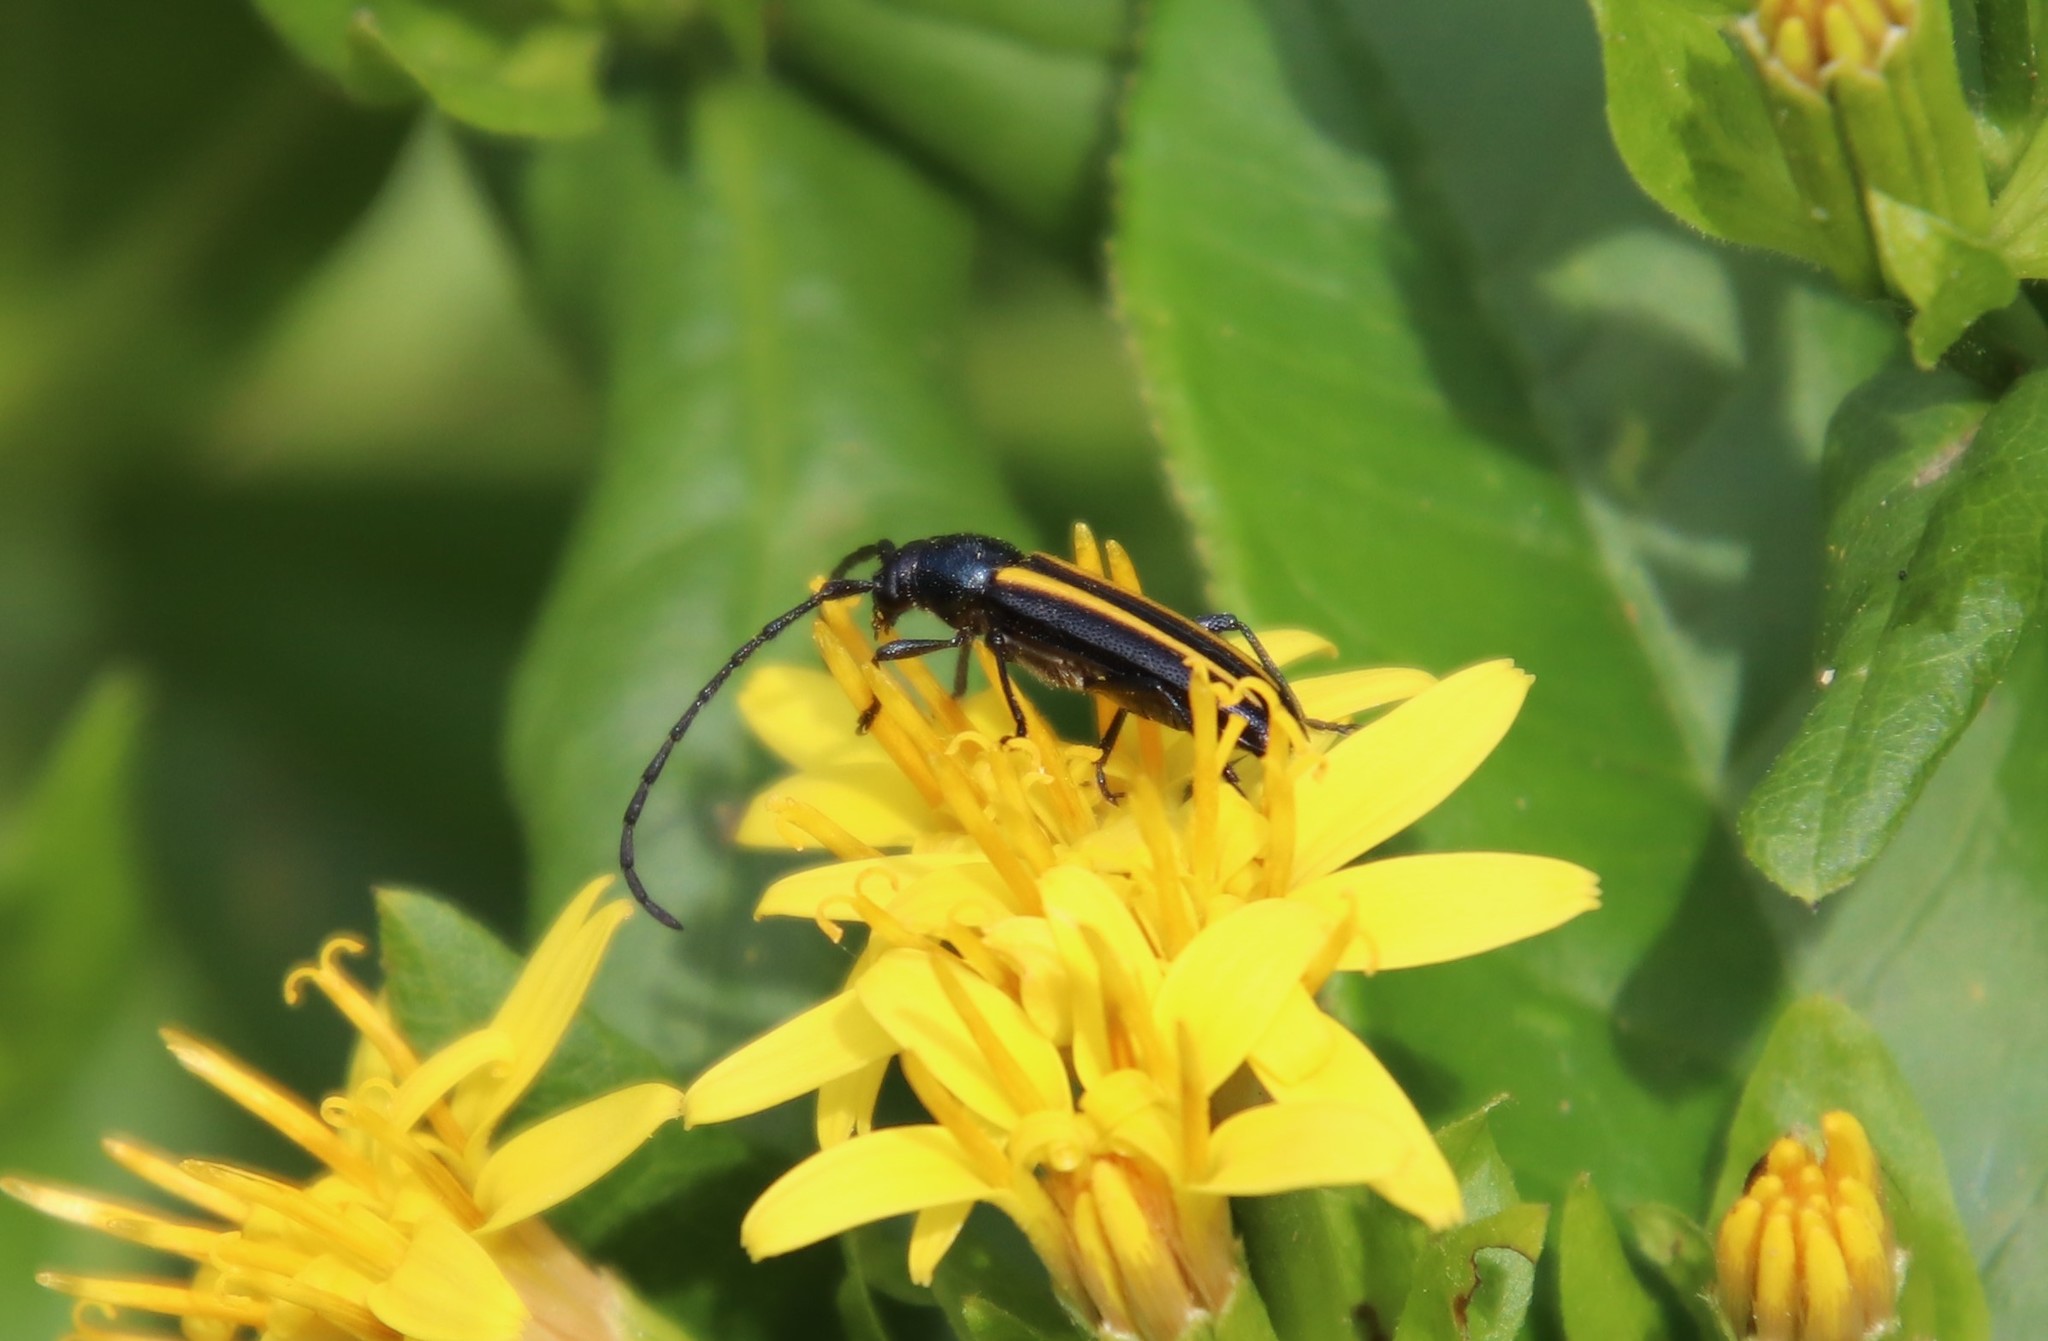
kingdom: Animalia
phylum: Arthropoda
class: Insecta
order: Coleoptera
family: Cerambycidae
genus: Lophalia
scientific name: Lophalia cyanicollis
